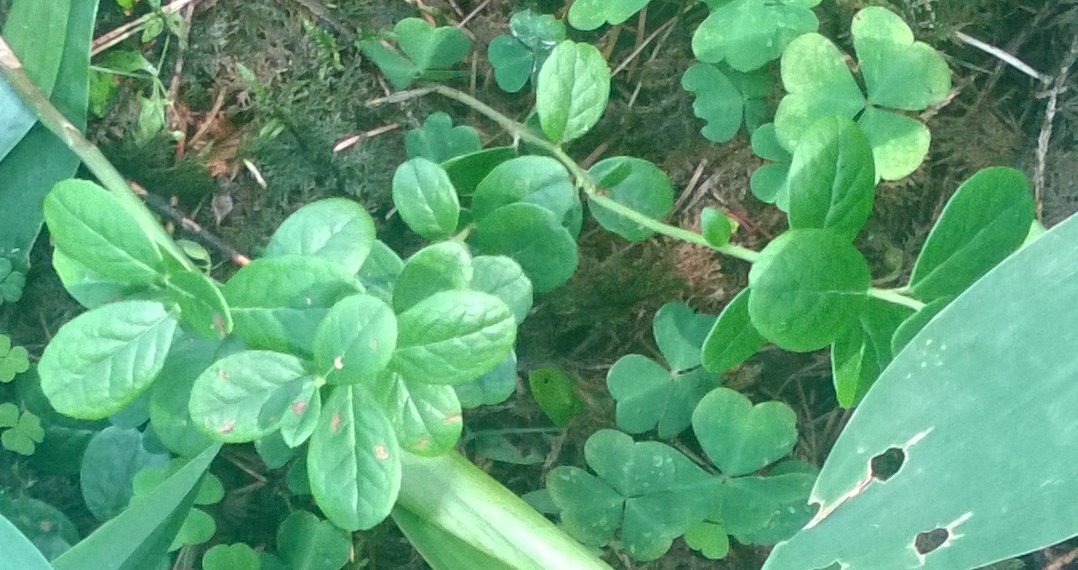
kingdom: Plantae
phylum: Tracheophyta
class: Magnoliopsida
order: Ericales
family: Ericaceae
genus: Vaccinium
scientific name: Vaccinium vitis-idaea
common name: Cowberry
